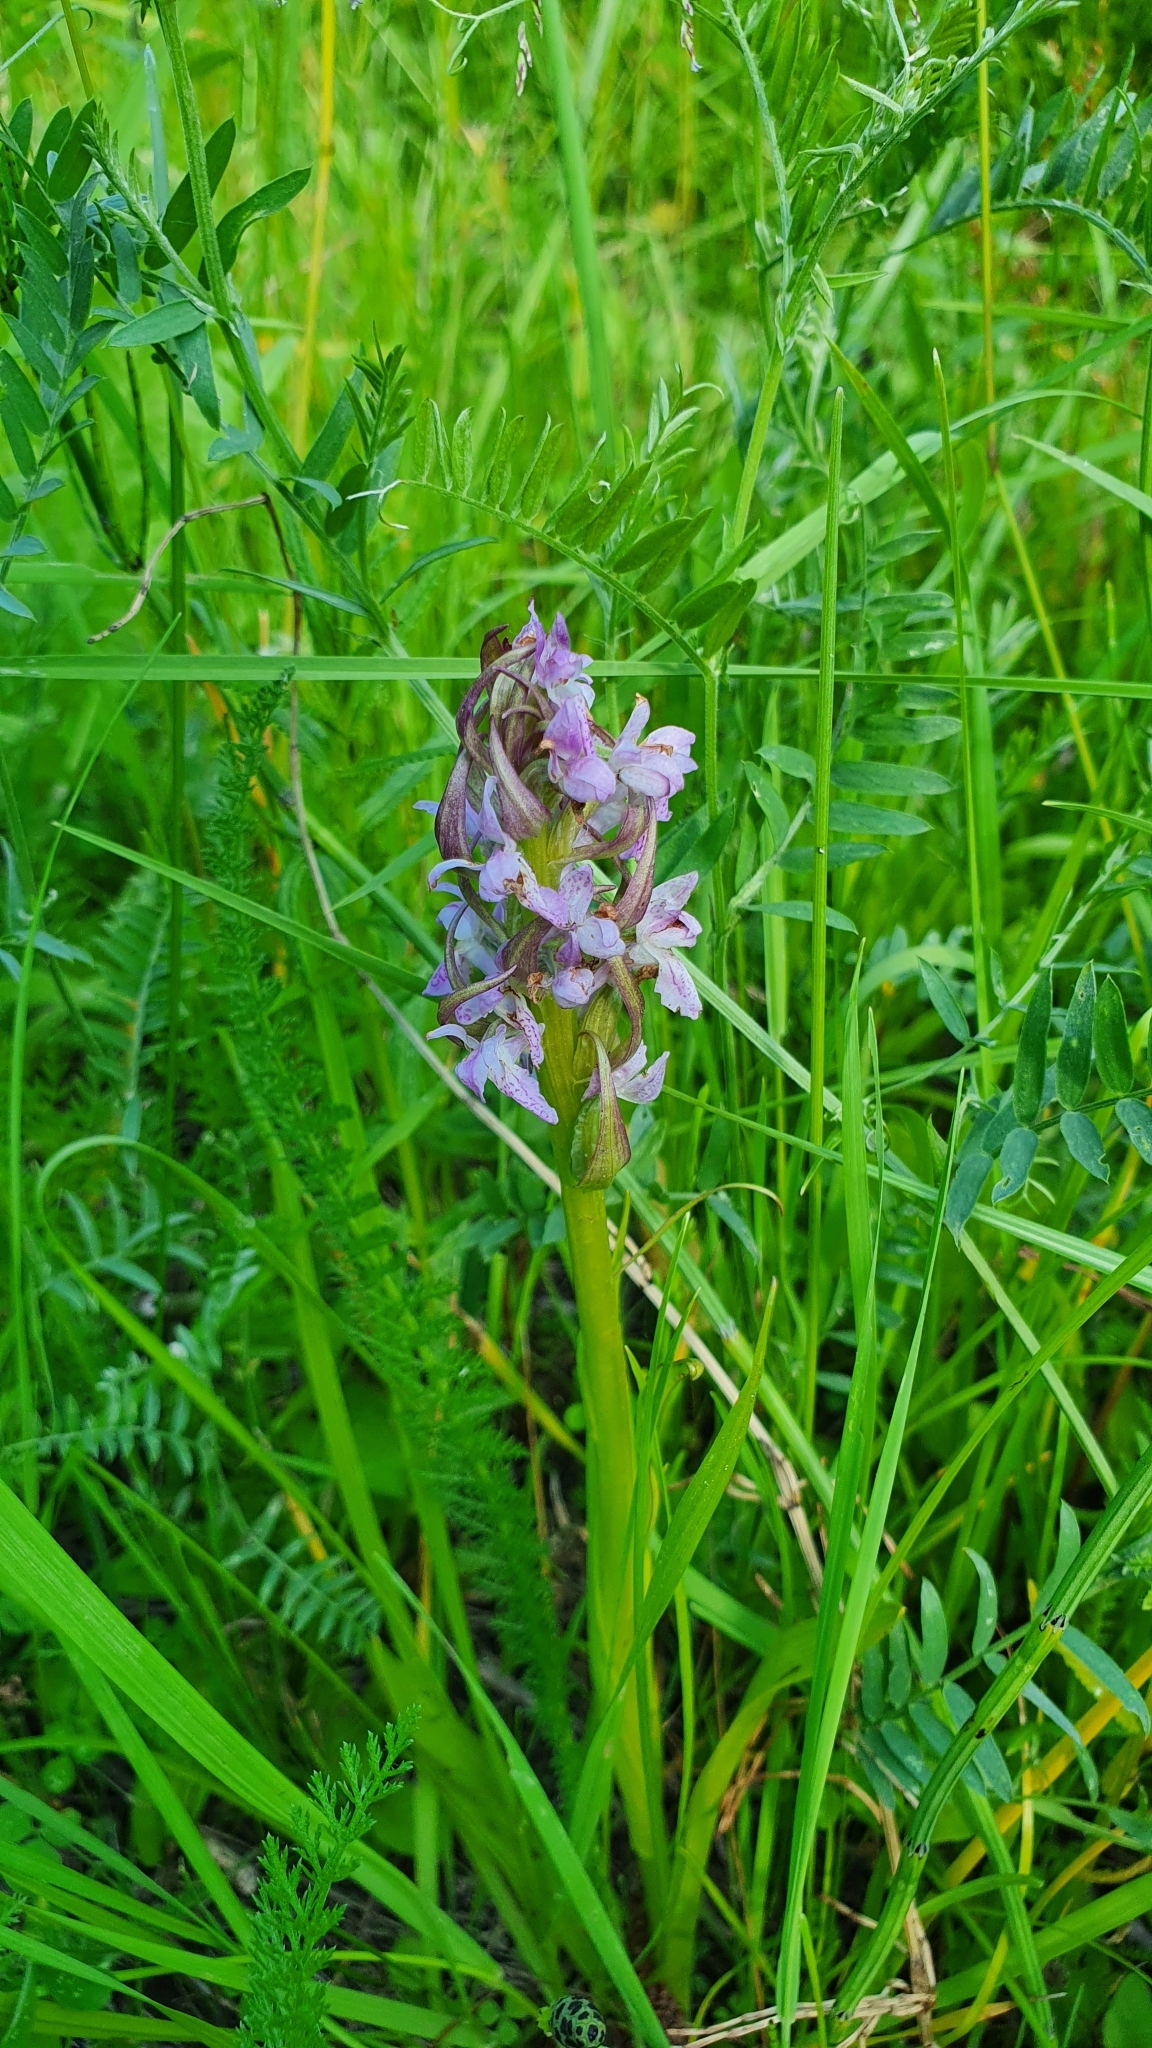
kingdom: Plantae
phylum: Tracheophyta
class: Liliopsida
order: Asparagales
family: Orchidaceae
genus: Dactylorhiza
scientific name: Dactylorhiza incarnata
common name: Early marsh-orchid
